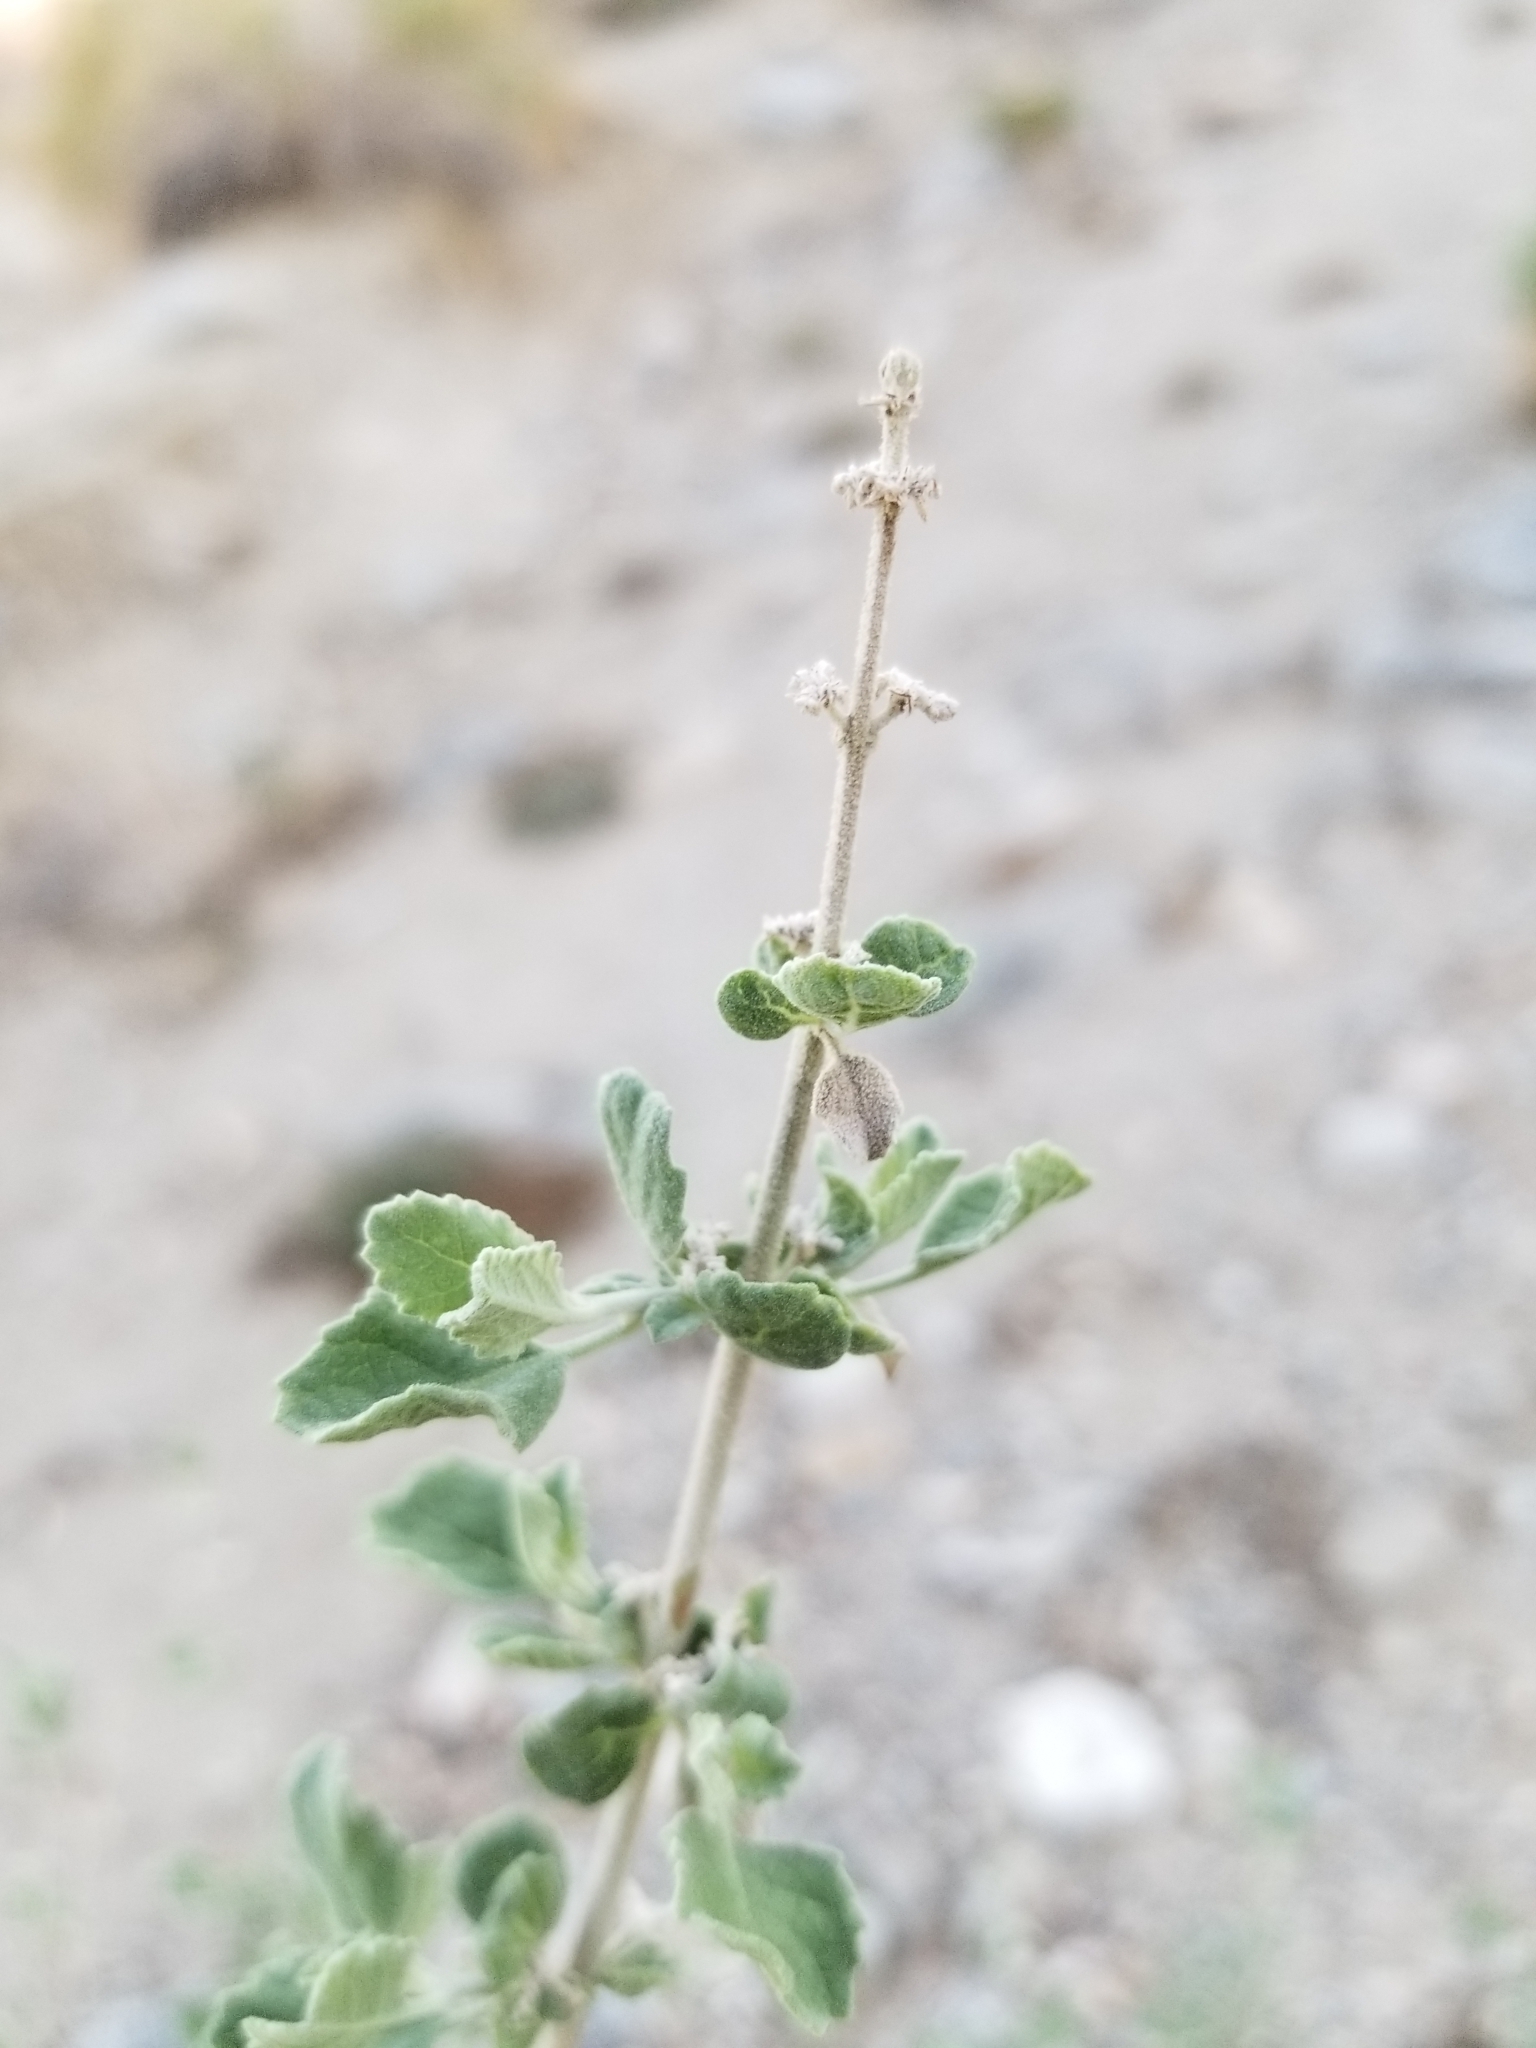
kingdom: Plantae
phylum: Tracheophyta
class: Magnoliopsida
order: Lamiales
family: Lamiaceae
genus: Condea
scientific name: Condea emoryi
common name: Chia
